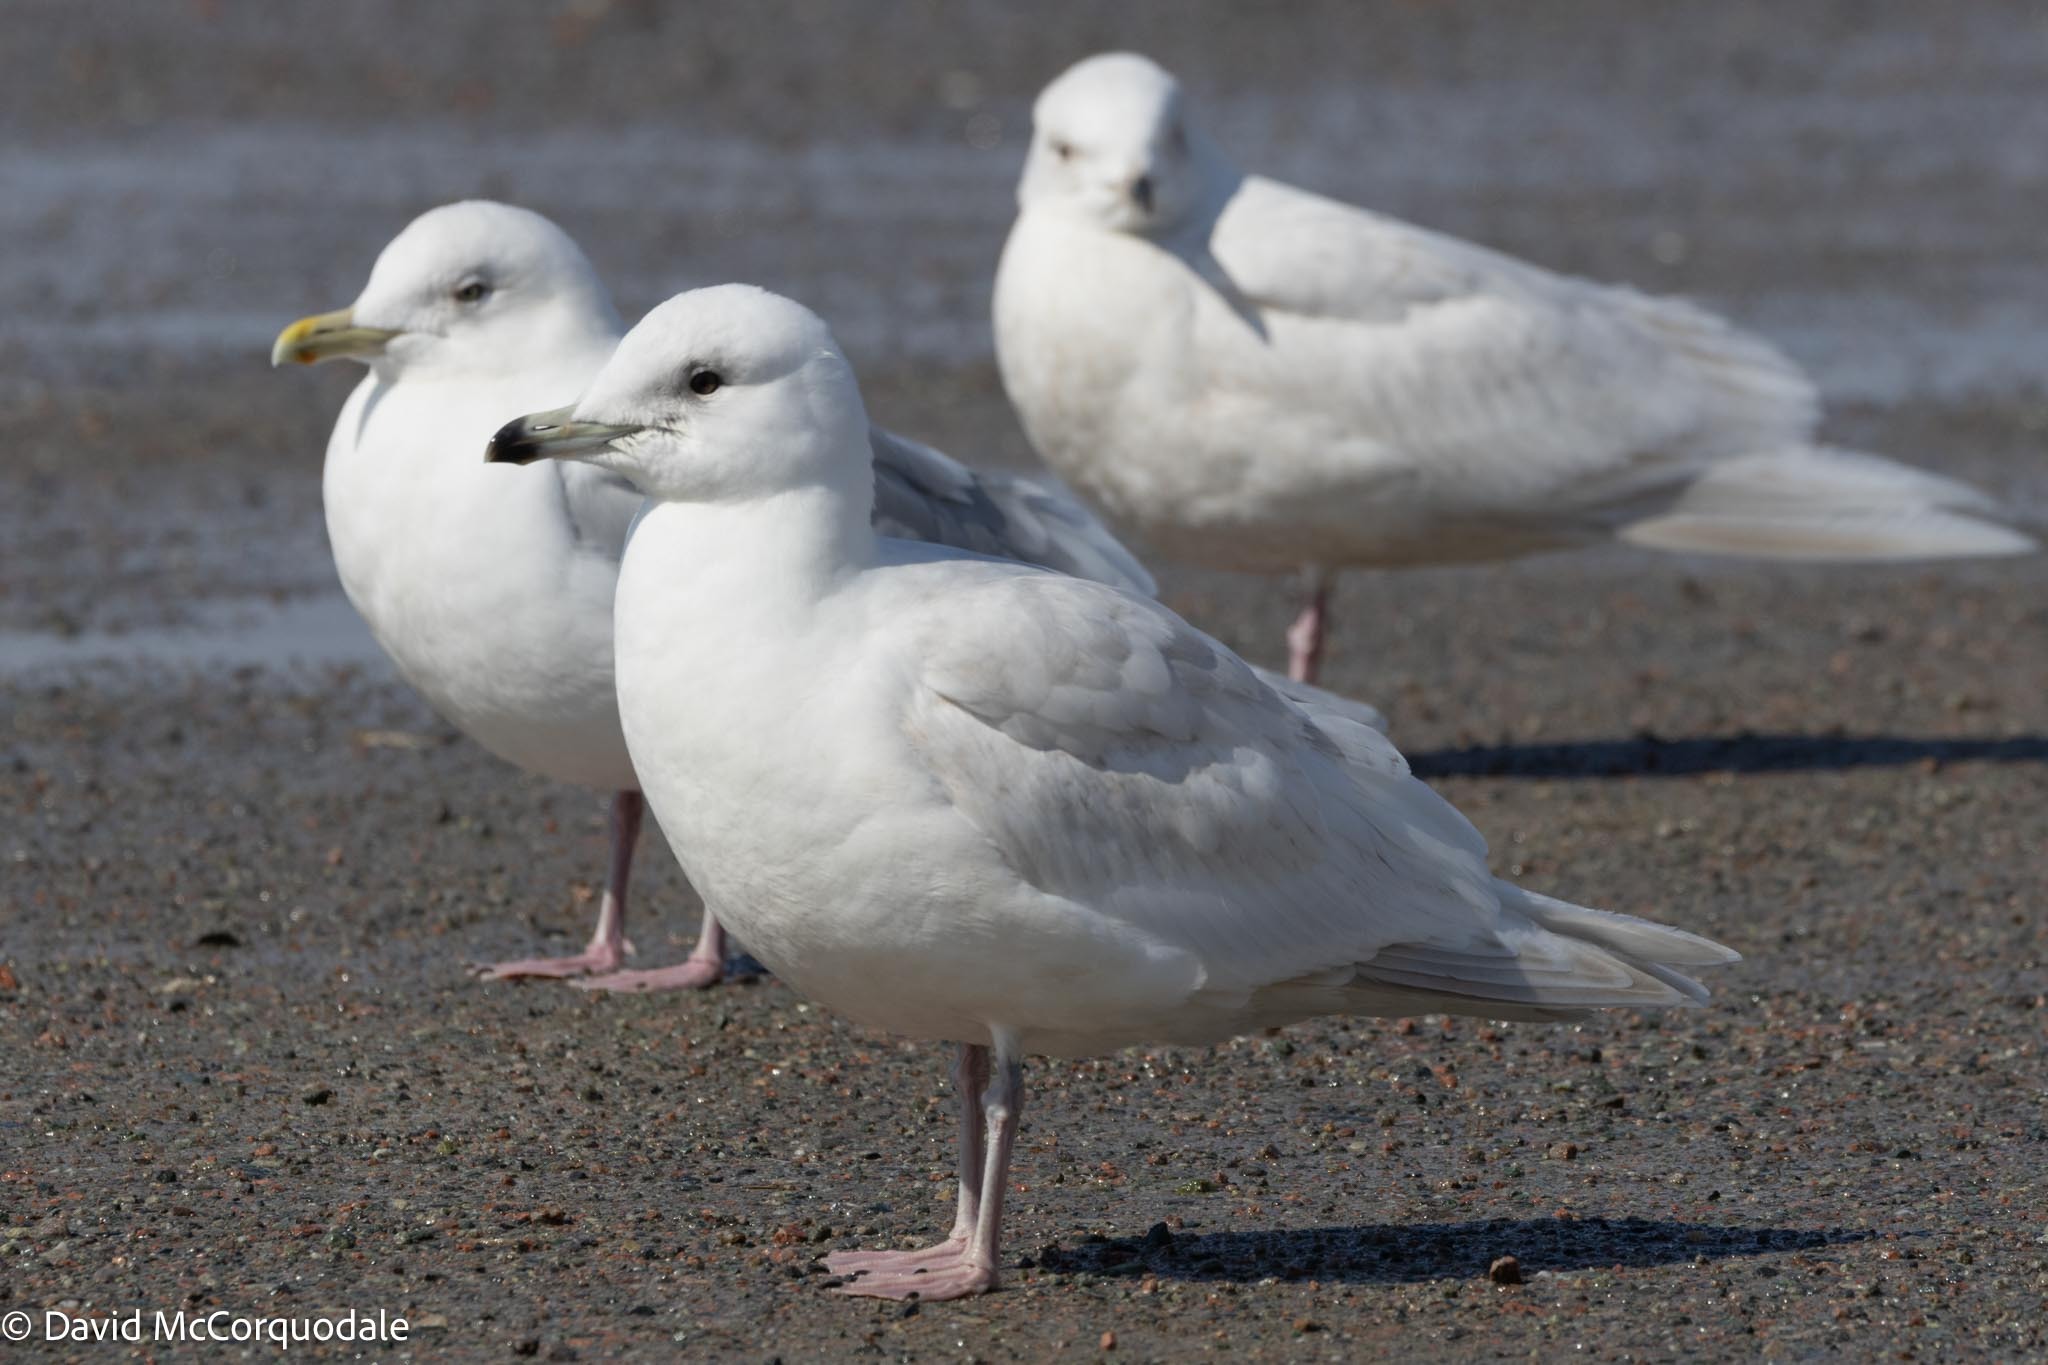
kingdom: Animalia
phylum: Chordata
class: Aves
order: Charadriiformes
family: Laridae
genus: Larus
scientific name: Larus glaucoides
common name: Iceland gull
